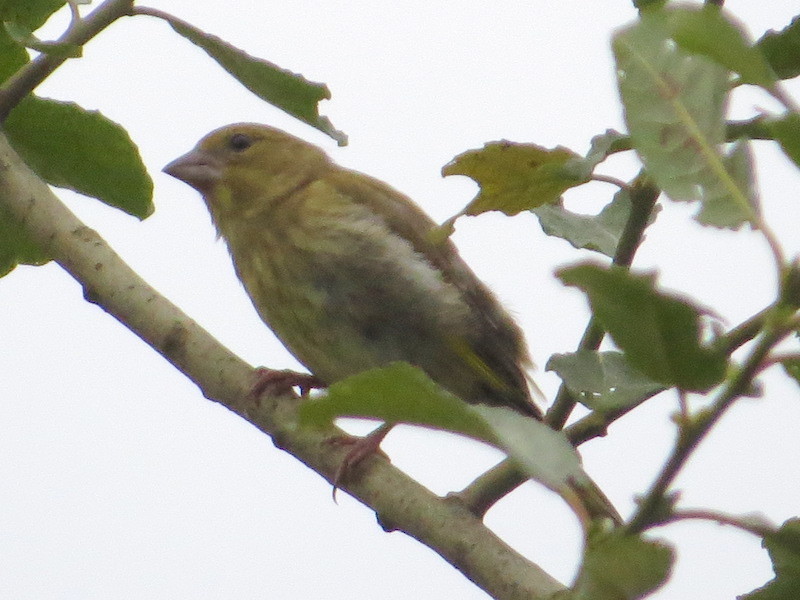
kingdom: Plantae
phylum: Tracheophyta
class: Liliopsida
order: Poales
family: Poaceae
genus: Chloris
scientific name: Chloris chloris
